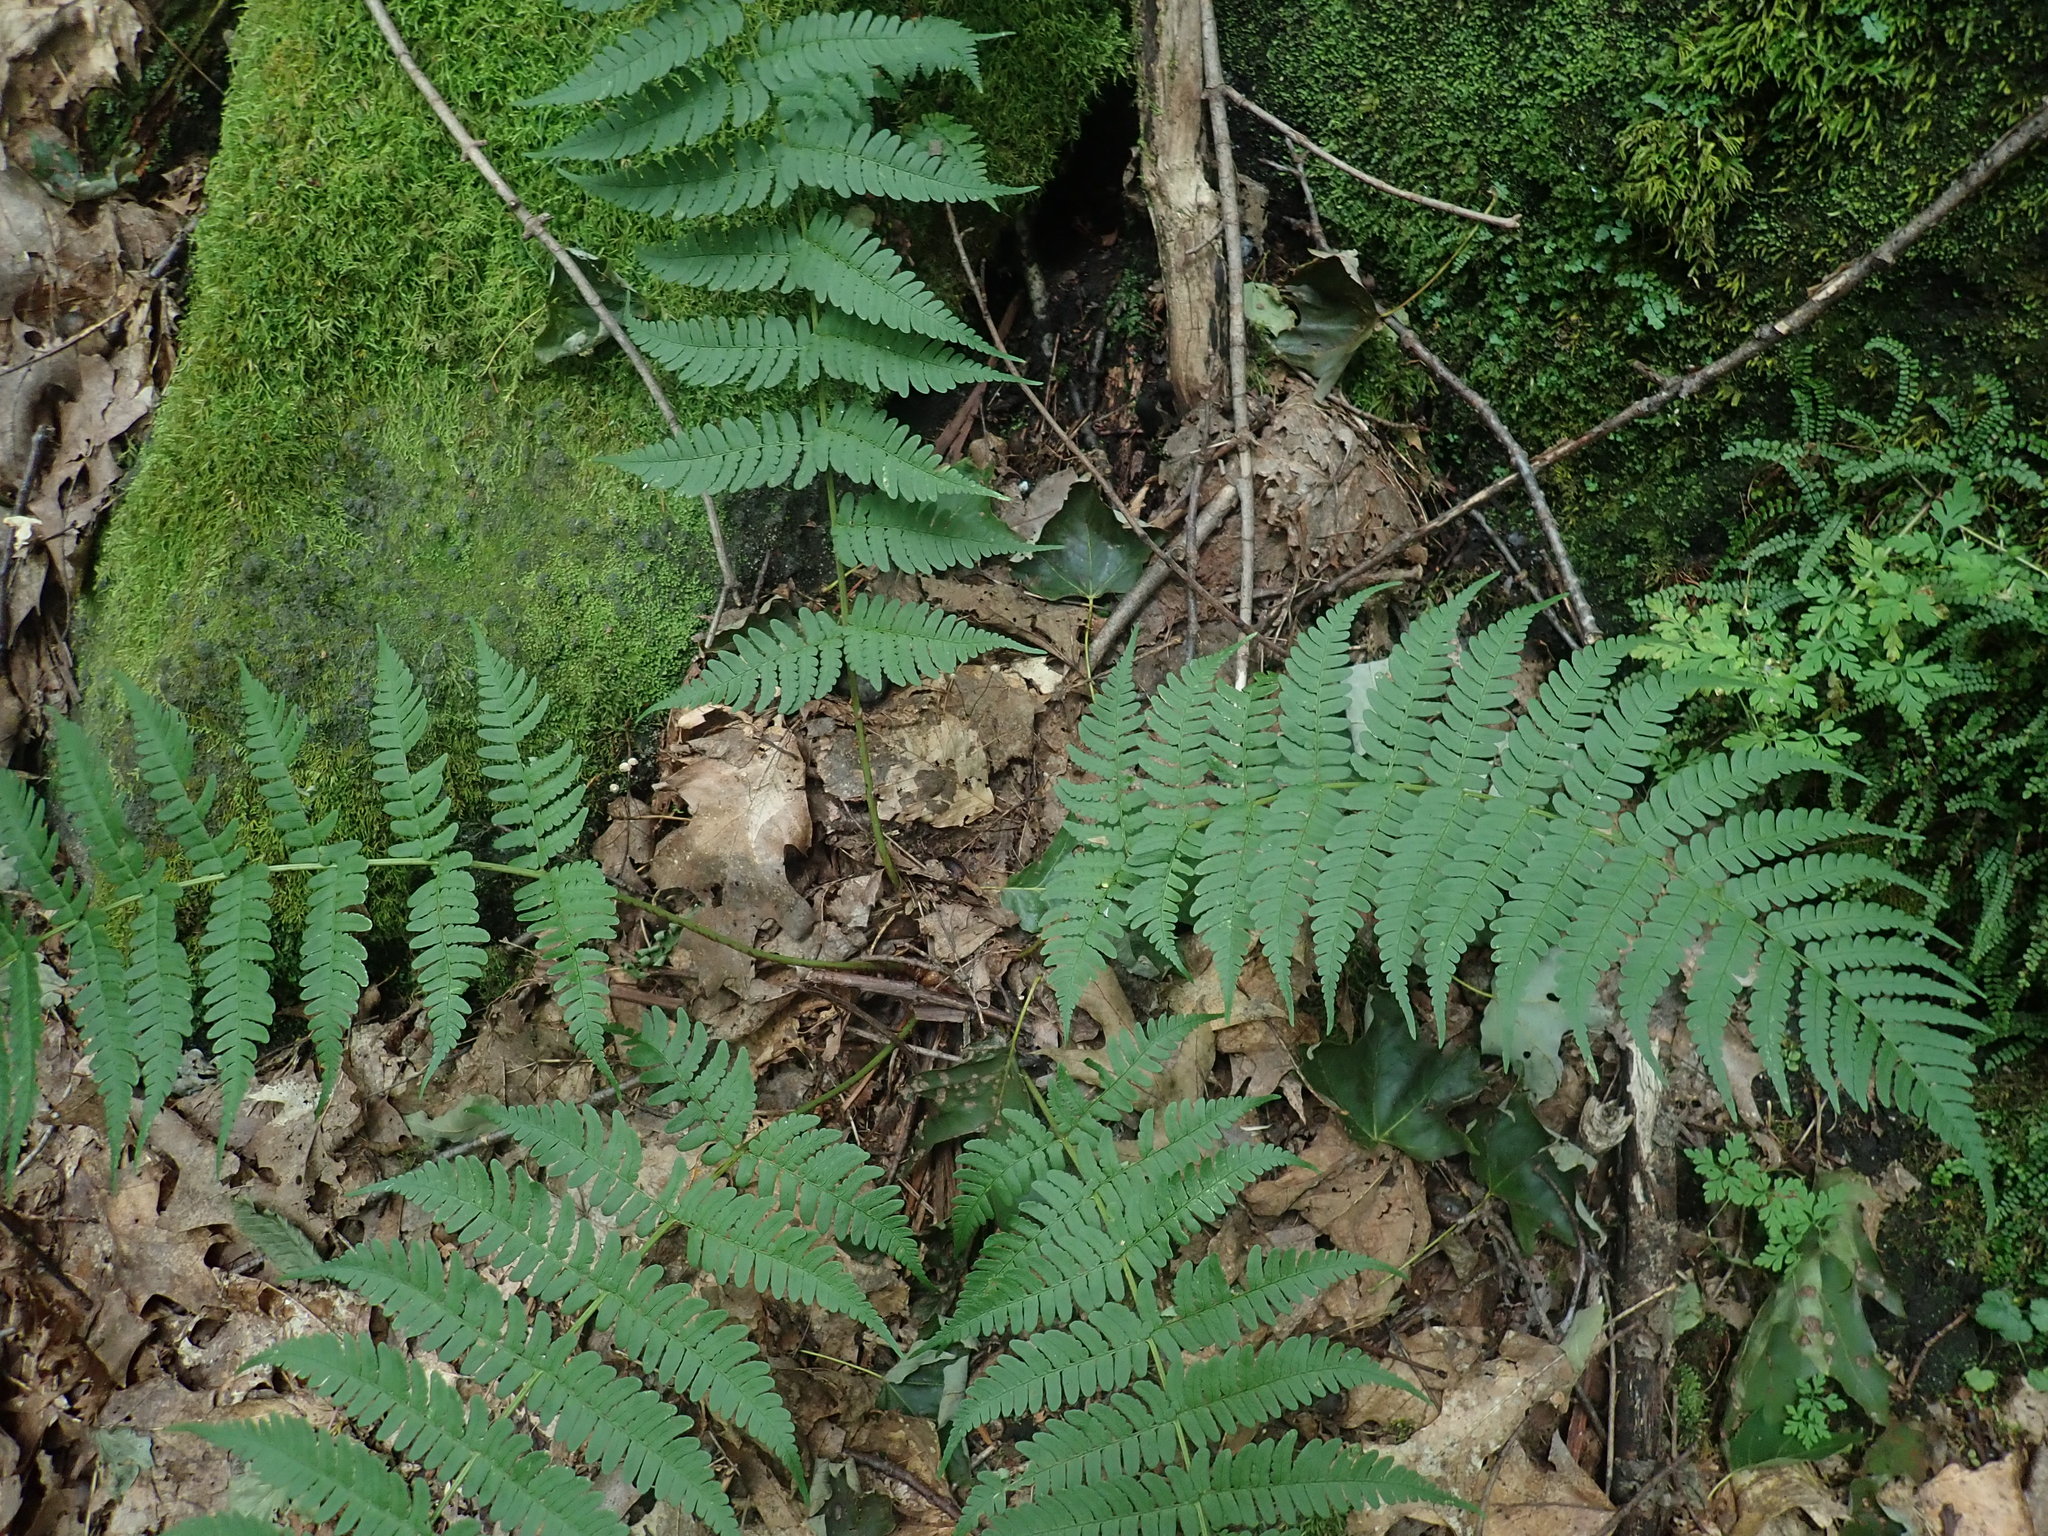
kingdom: Plantae
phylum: Tracheophyta
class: Polypodiopsida
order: Polypodiales
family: Dryopteridaceae
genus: Dryopteris
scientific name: Dryopteris marginalis
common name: Marginal wood fern
